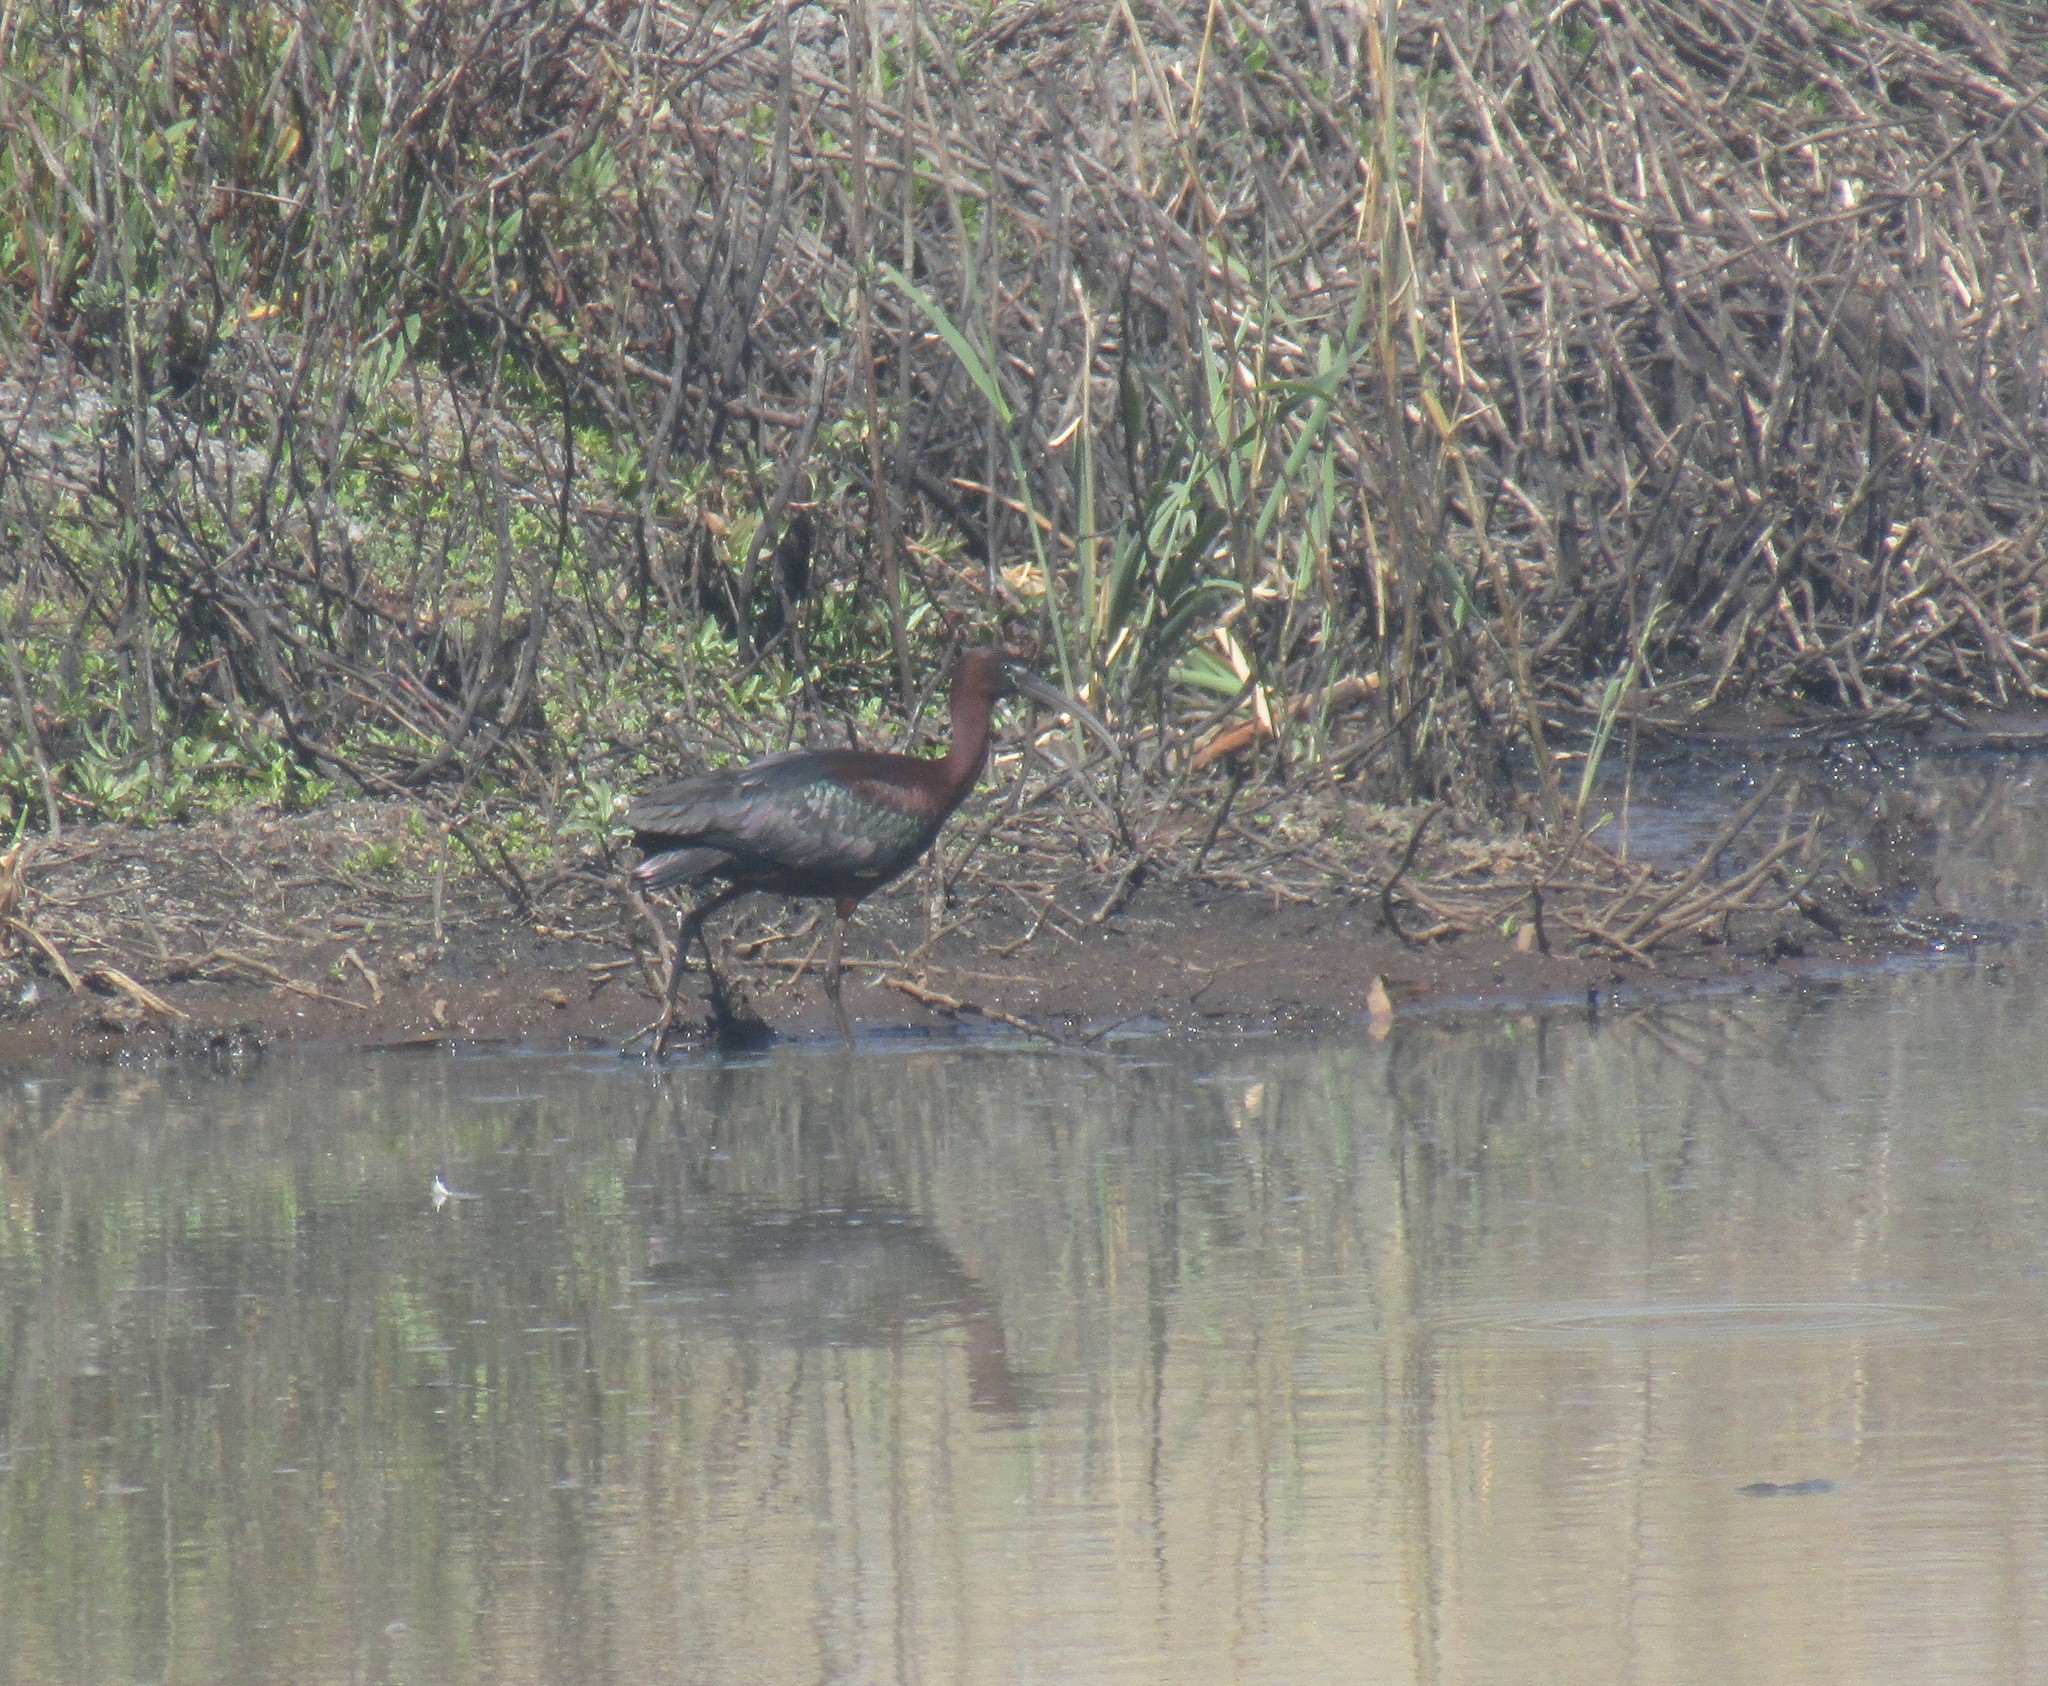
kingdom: Animalia
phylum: Chordata
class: Aves
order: Pelecaniformes
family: Threskiornithidae
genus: Plegadis
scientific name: Plegadis falcinellus
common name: Glossy ibis
